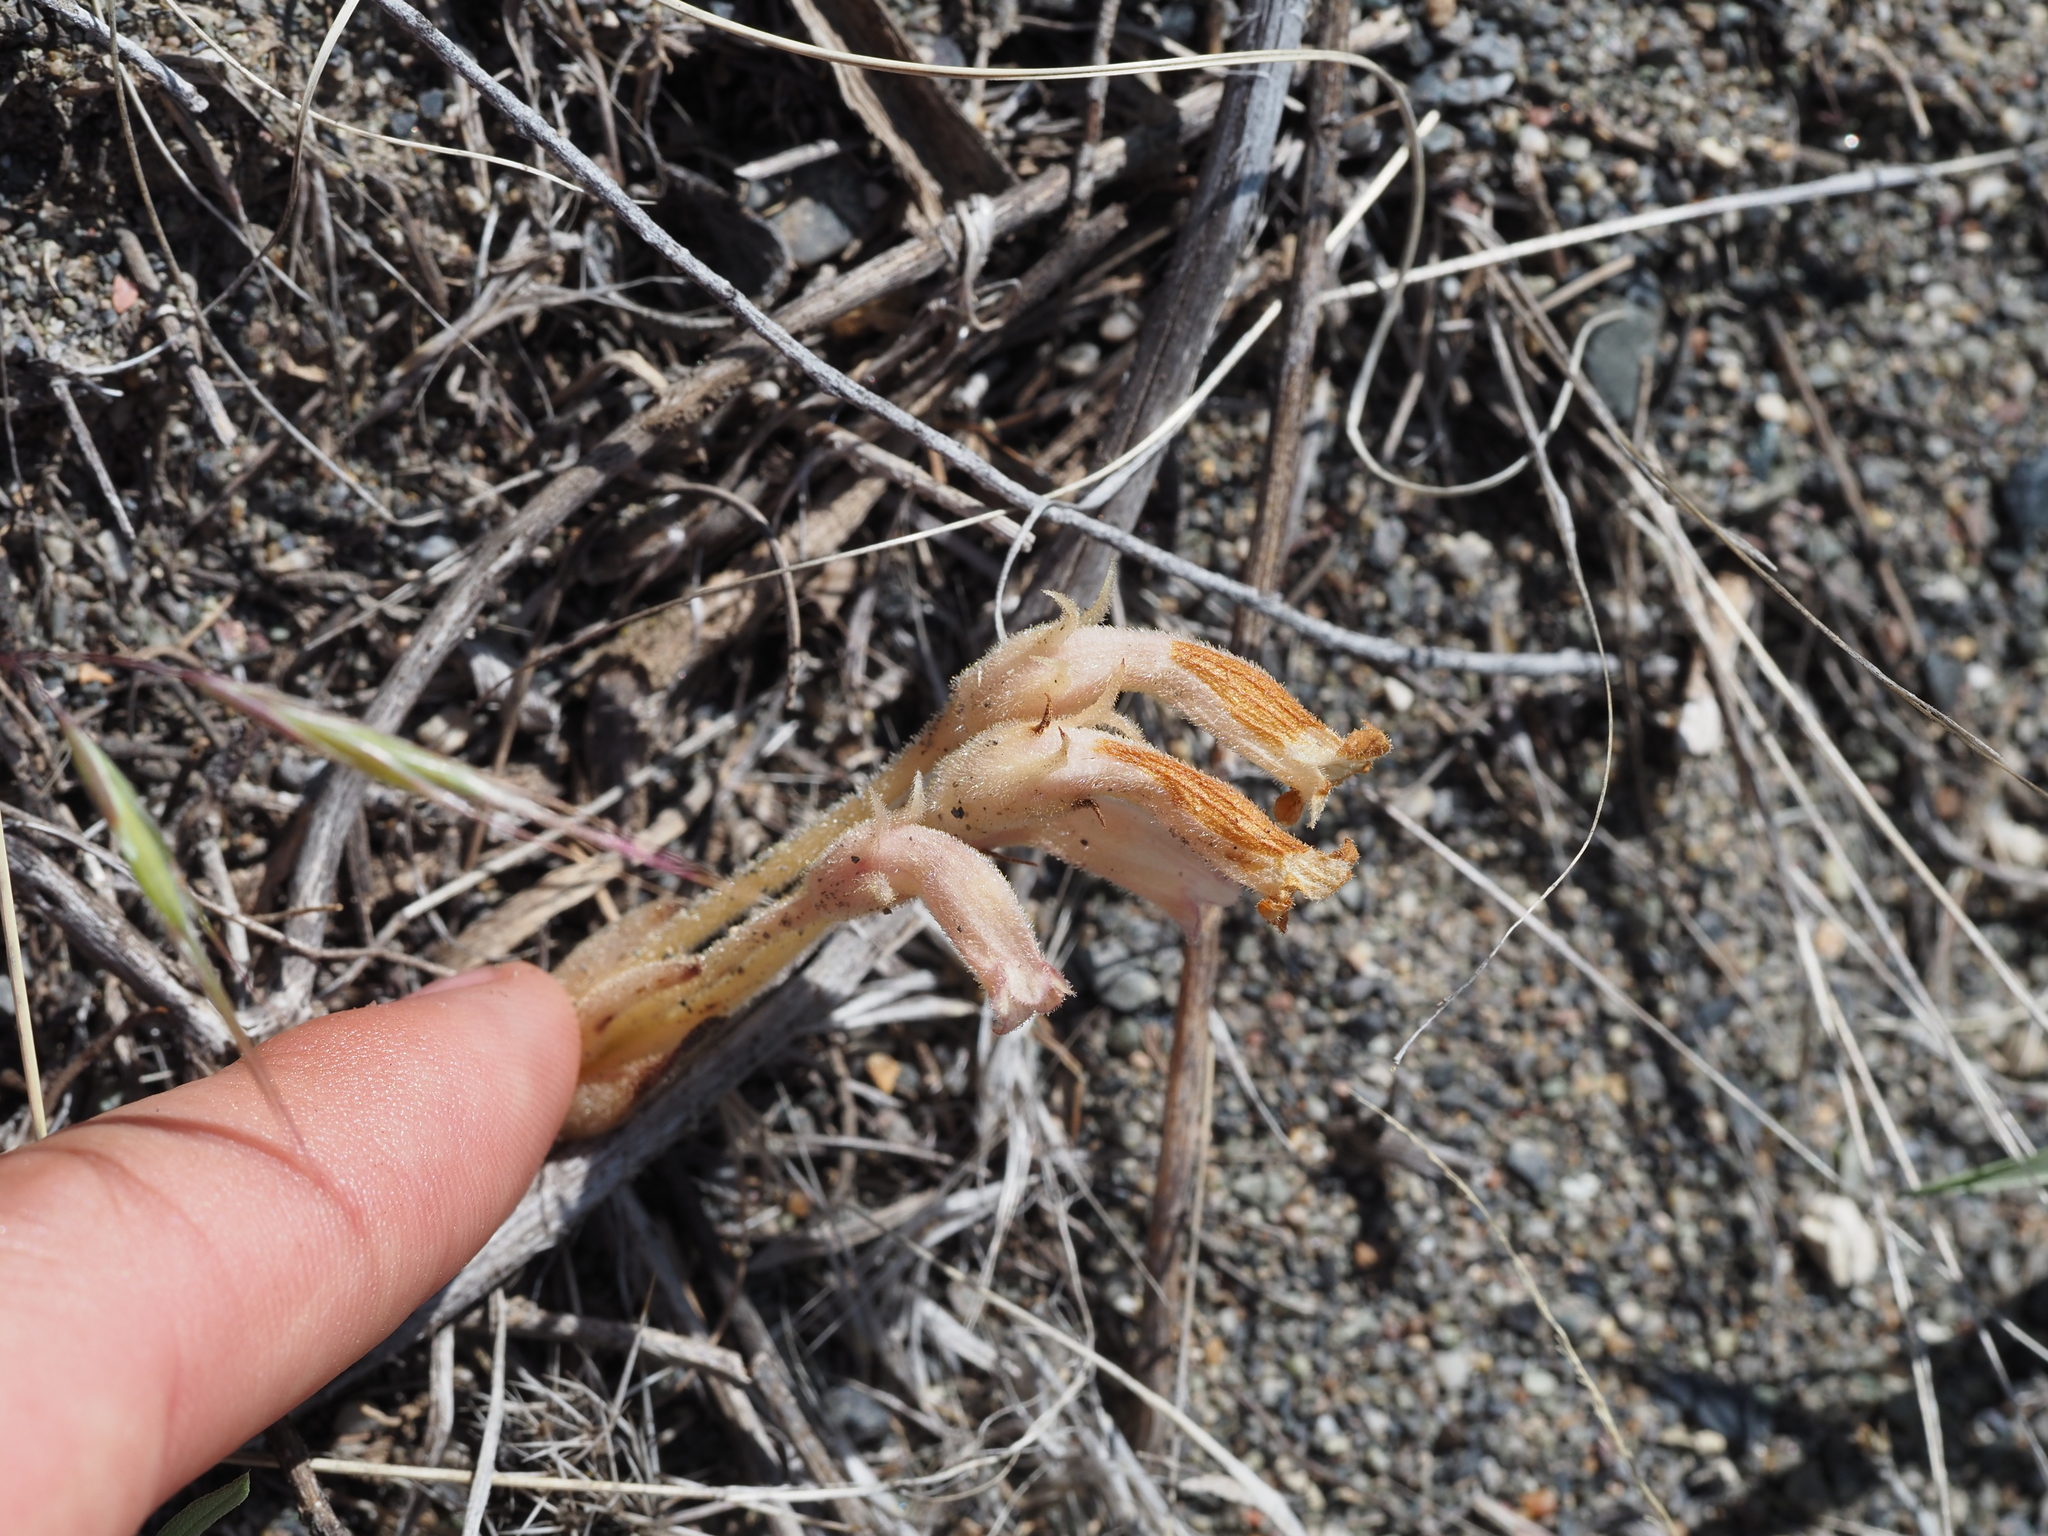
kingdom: Plantae
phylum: Tracheophyta
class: Magnoliopsida
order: Lamiales
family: Orobanchaceae
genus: Aphyllon
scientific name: Aphyllon fasciculatum
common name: Clustered broomrape
